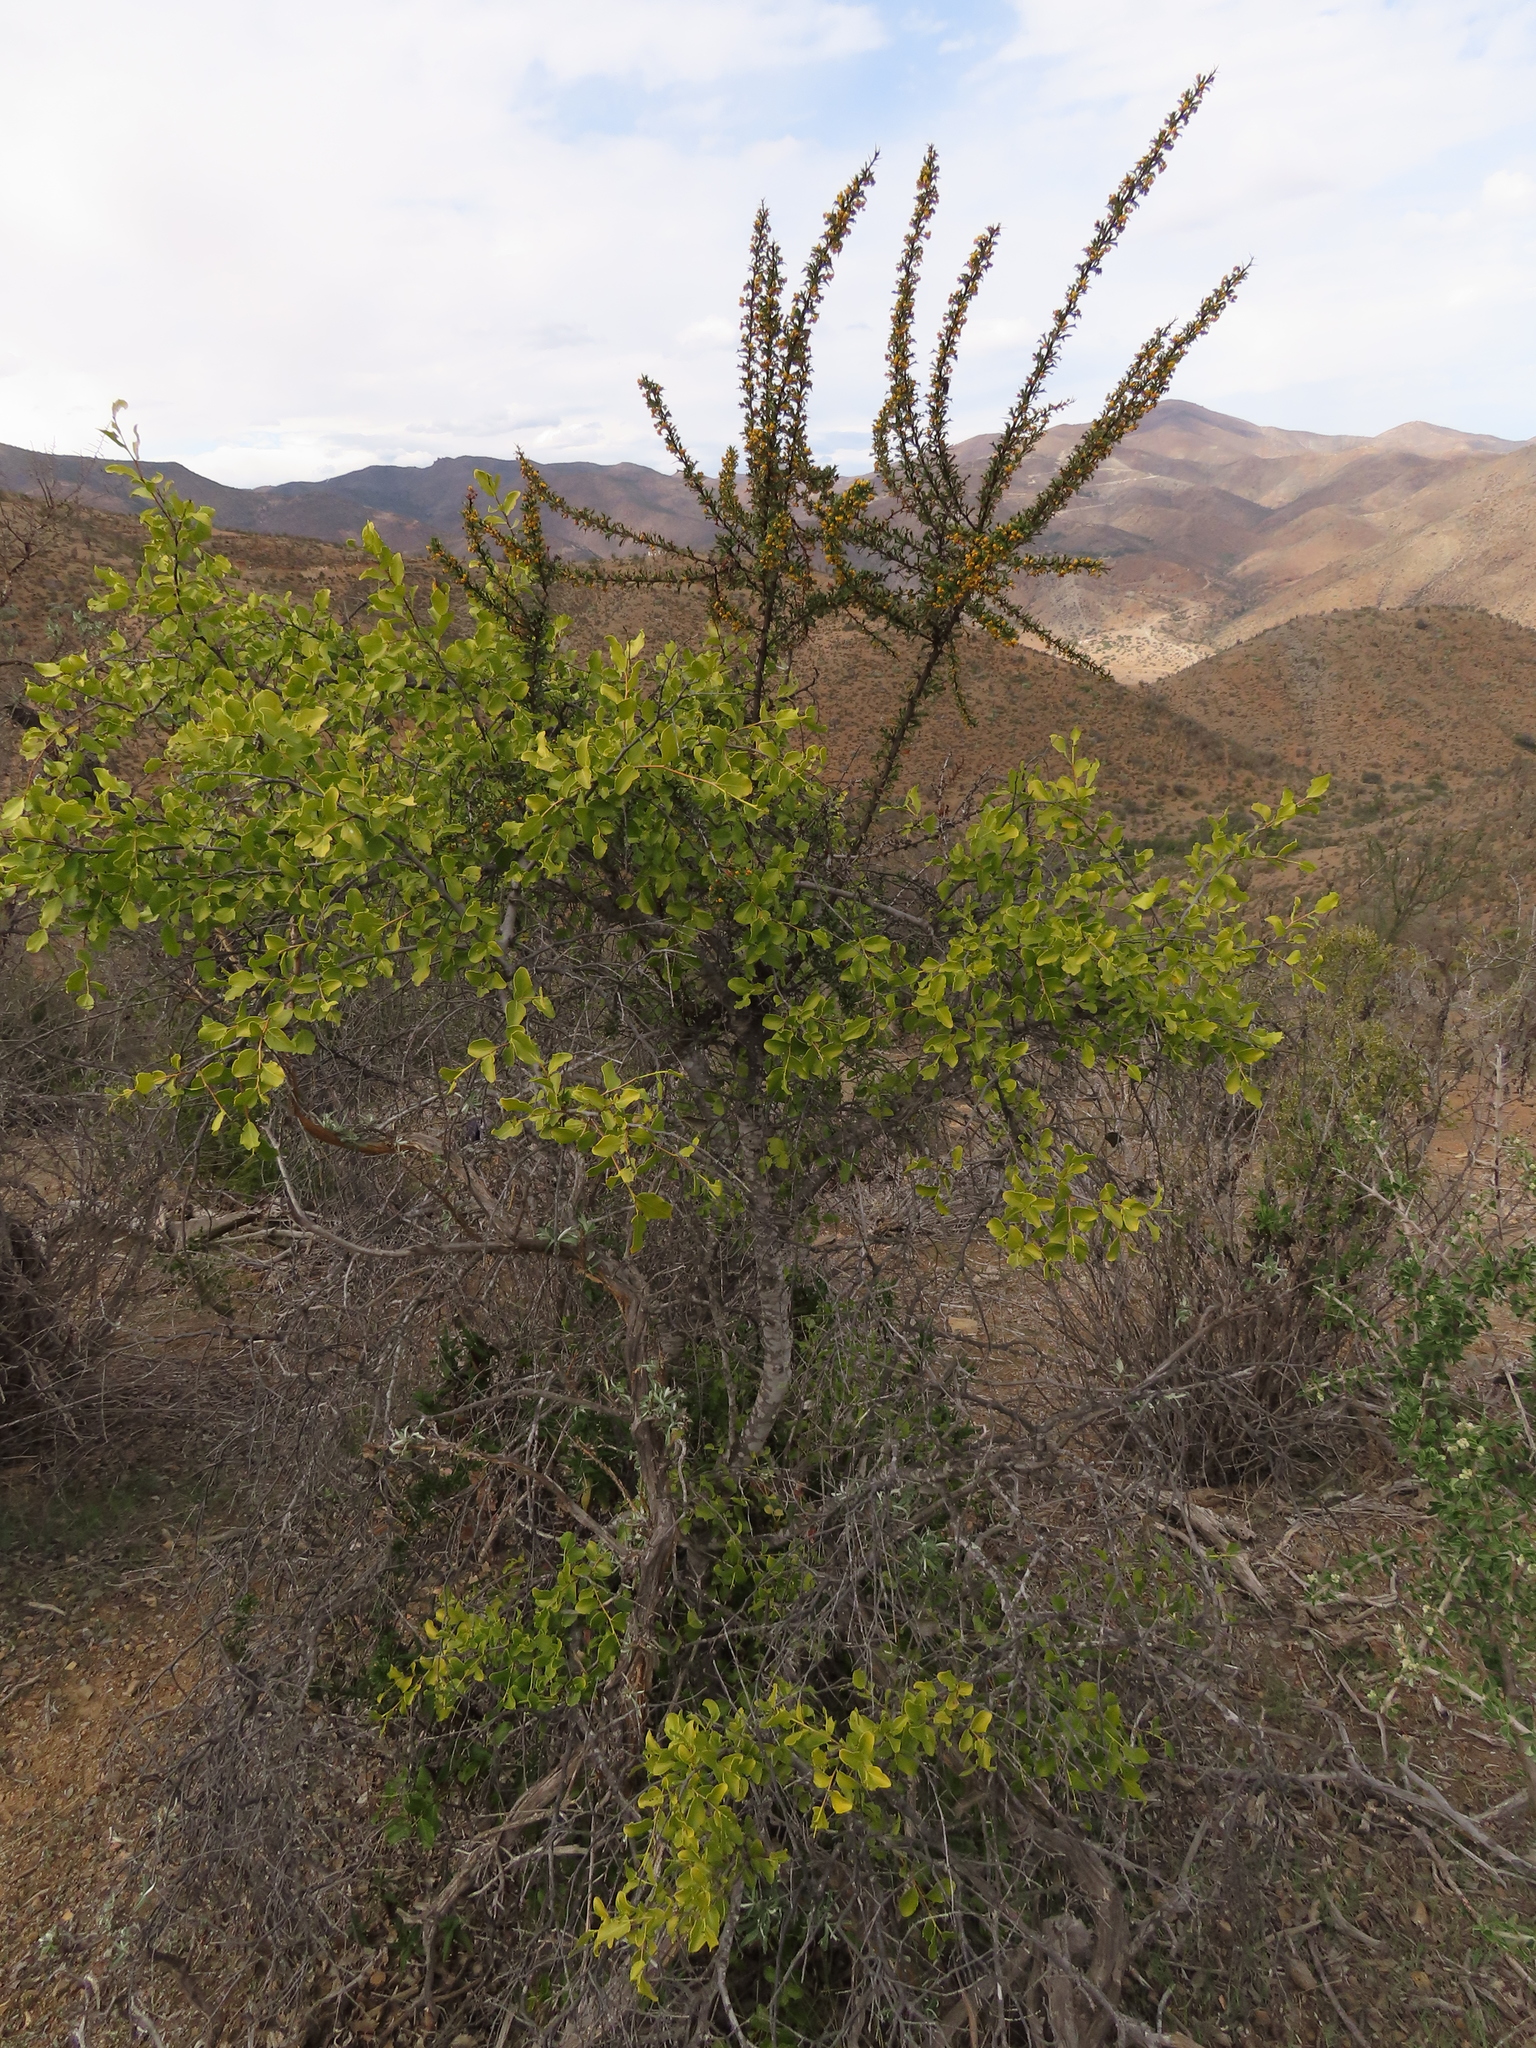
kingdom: Plantae
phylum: Tracheophyta
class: Magnoliopsida
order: Fabales
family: Quillajaceae
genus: Quillaja
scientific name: Quillaja saponaria
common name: Murillo's-bark
